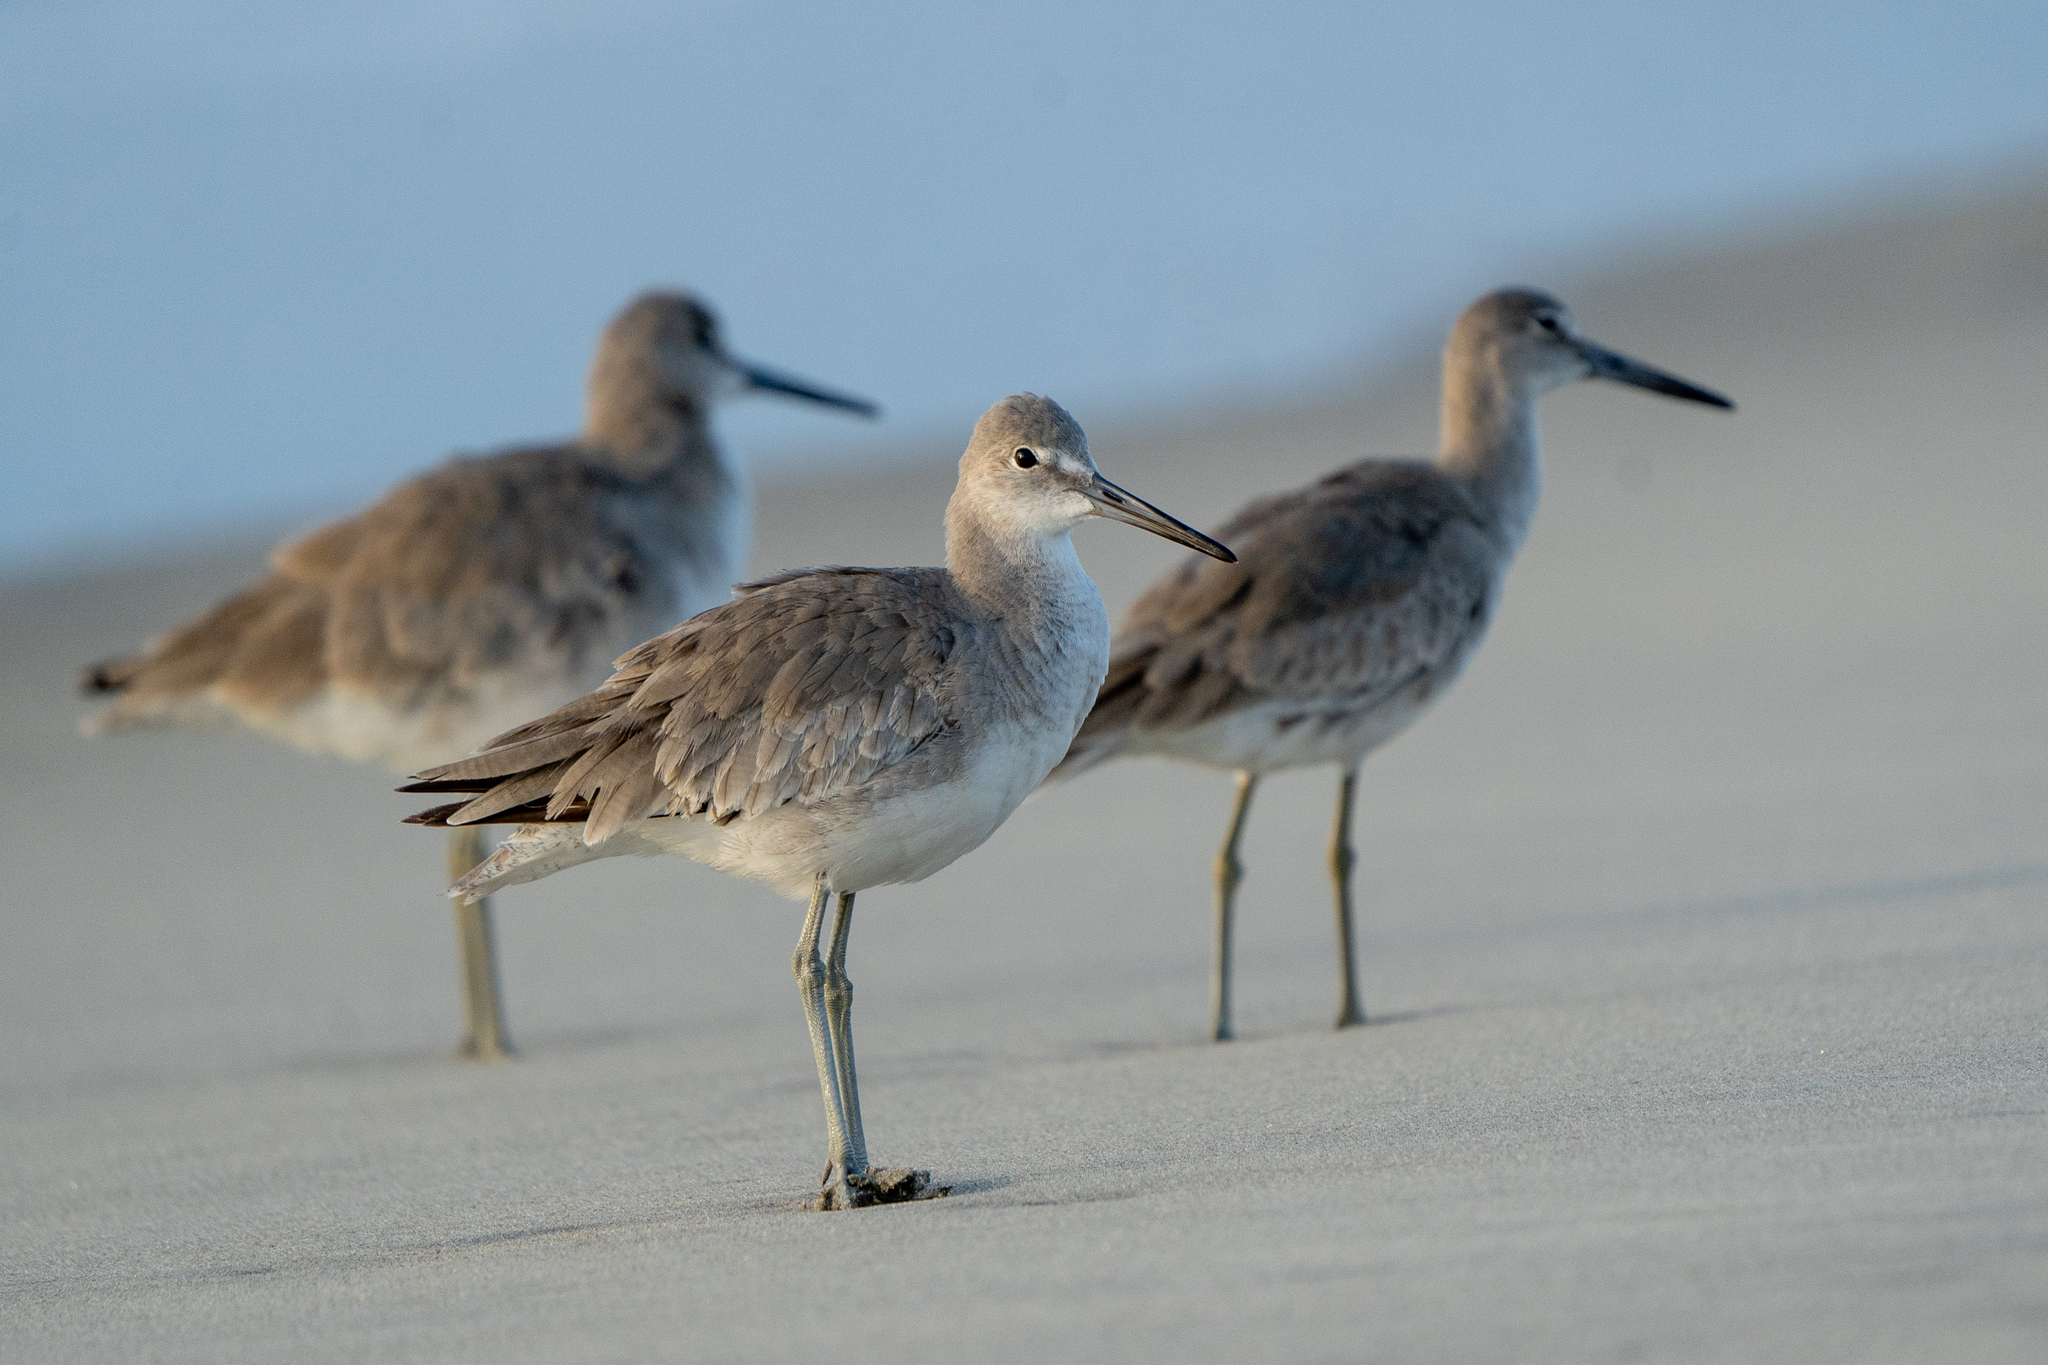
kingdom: Animalia
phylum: Chordata
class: Aves
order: Charadriiformes
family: Scolopacidae
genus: Tringa
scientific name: Tringa semipalmata
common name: Willet
